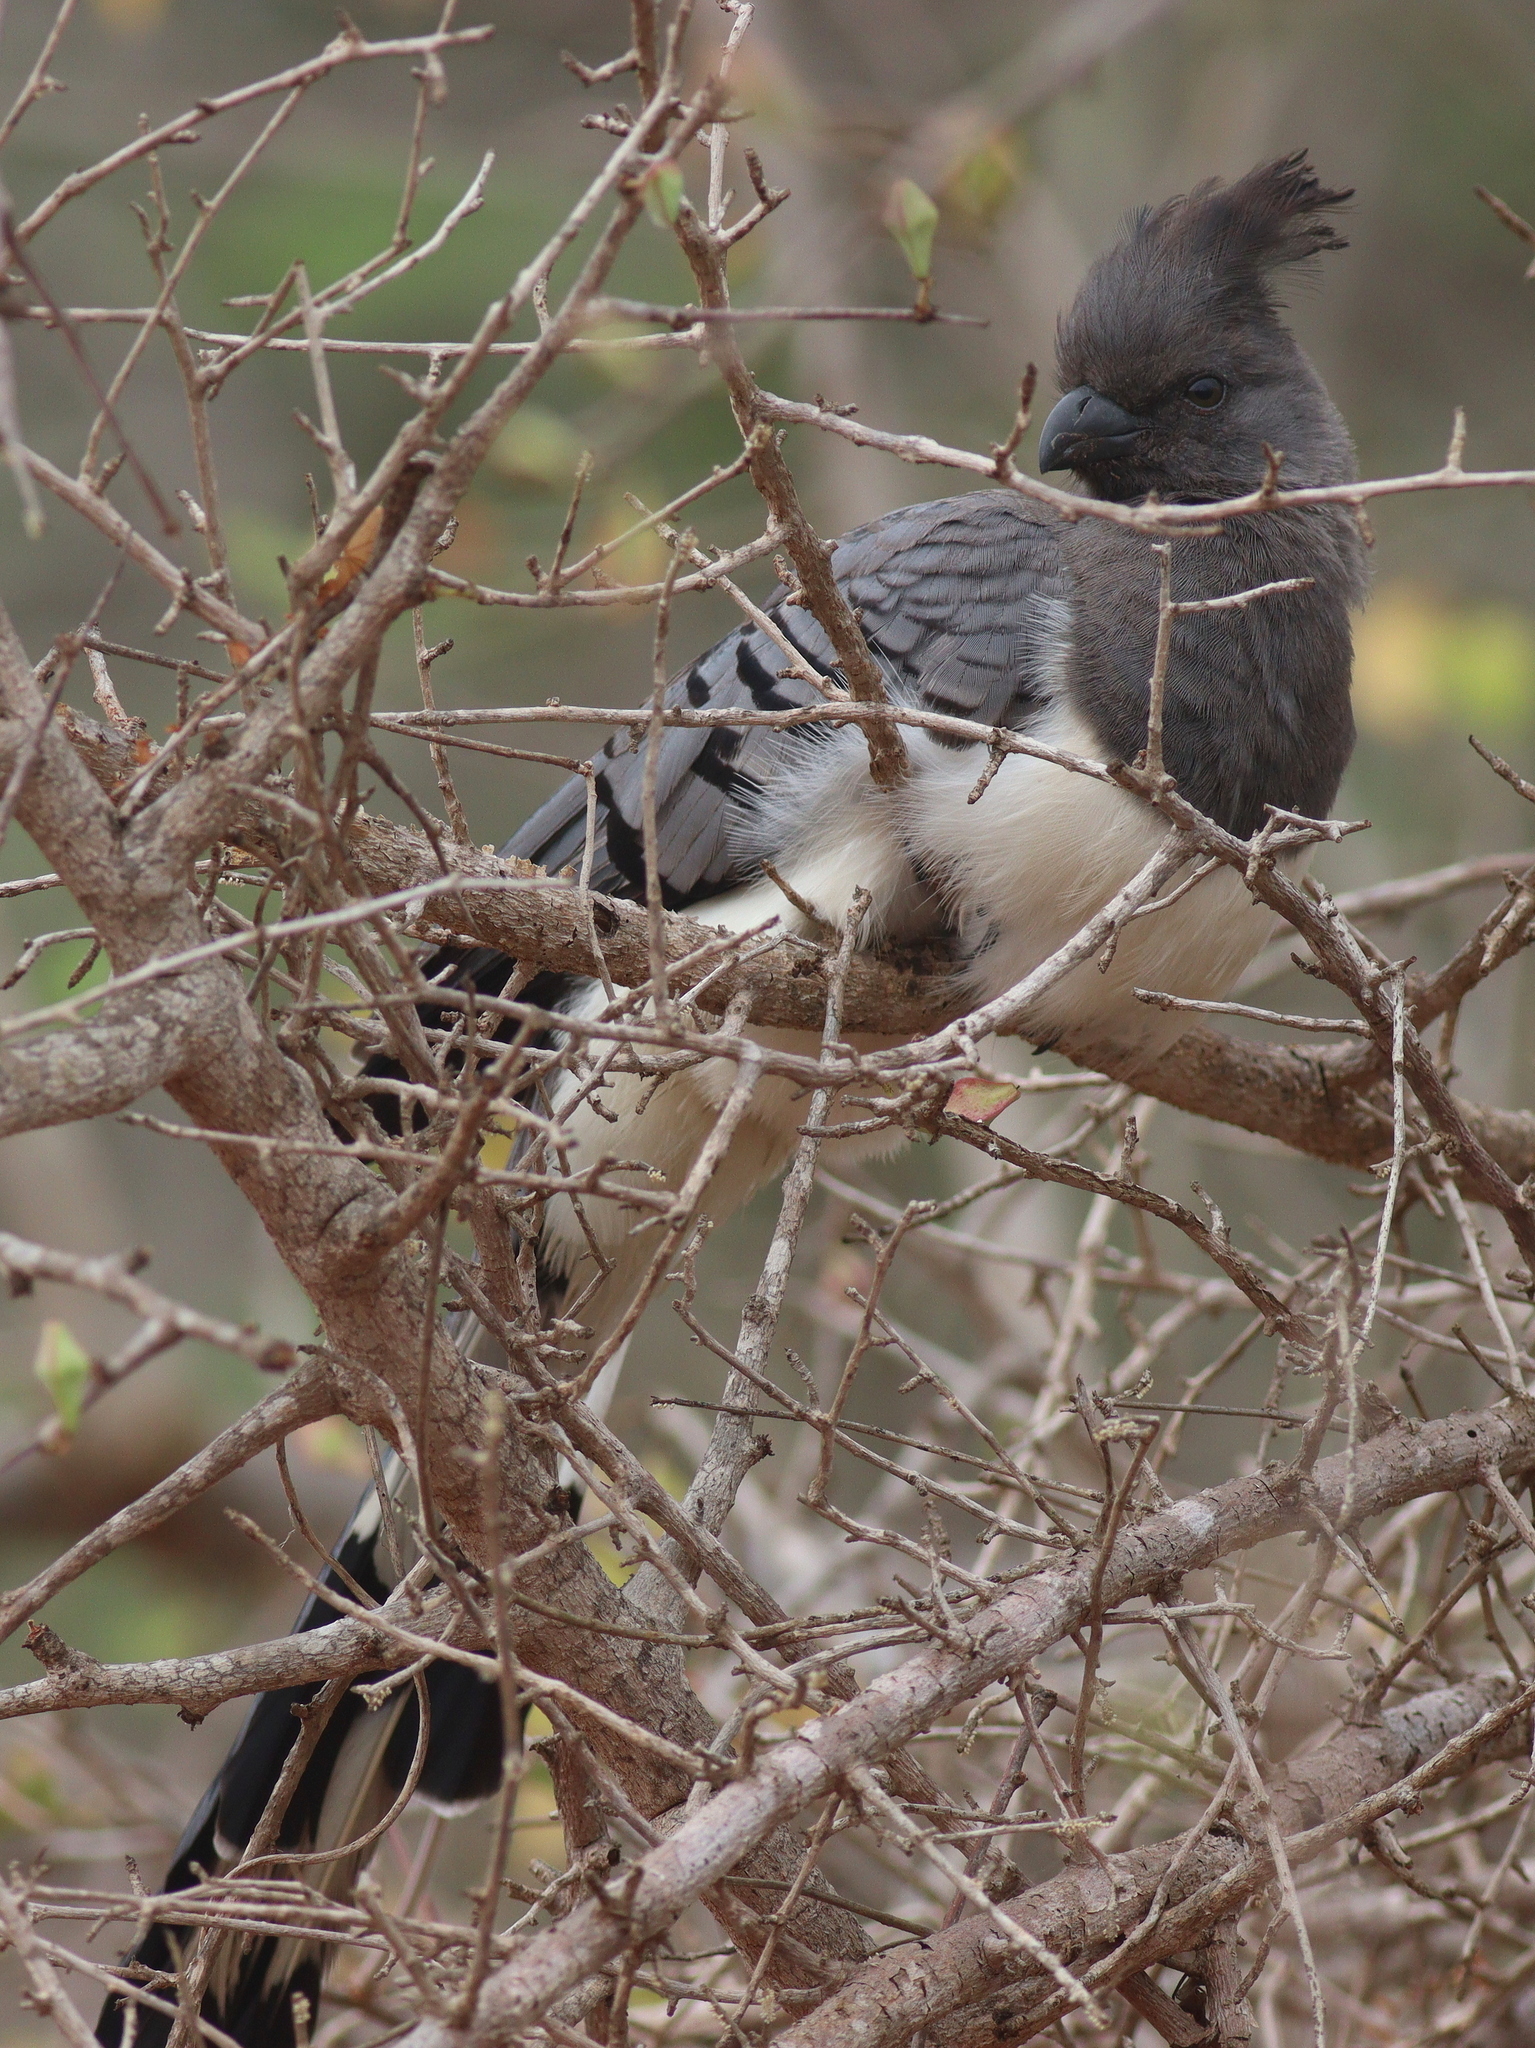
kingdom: Animalia
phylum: Chordata
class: Aves
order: Musophagiformes
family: Musophagidae
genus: Corythaixoides
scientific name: Corythaixoides leucogaster
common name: White-bellied go-away-bird
